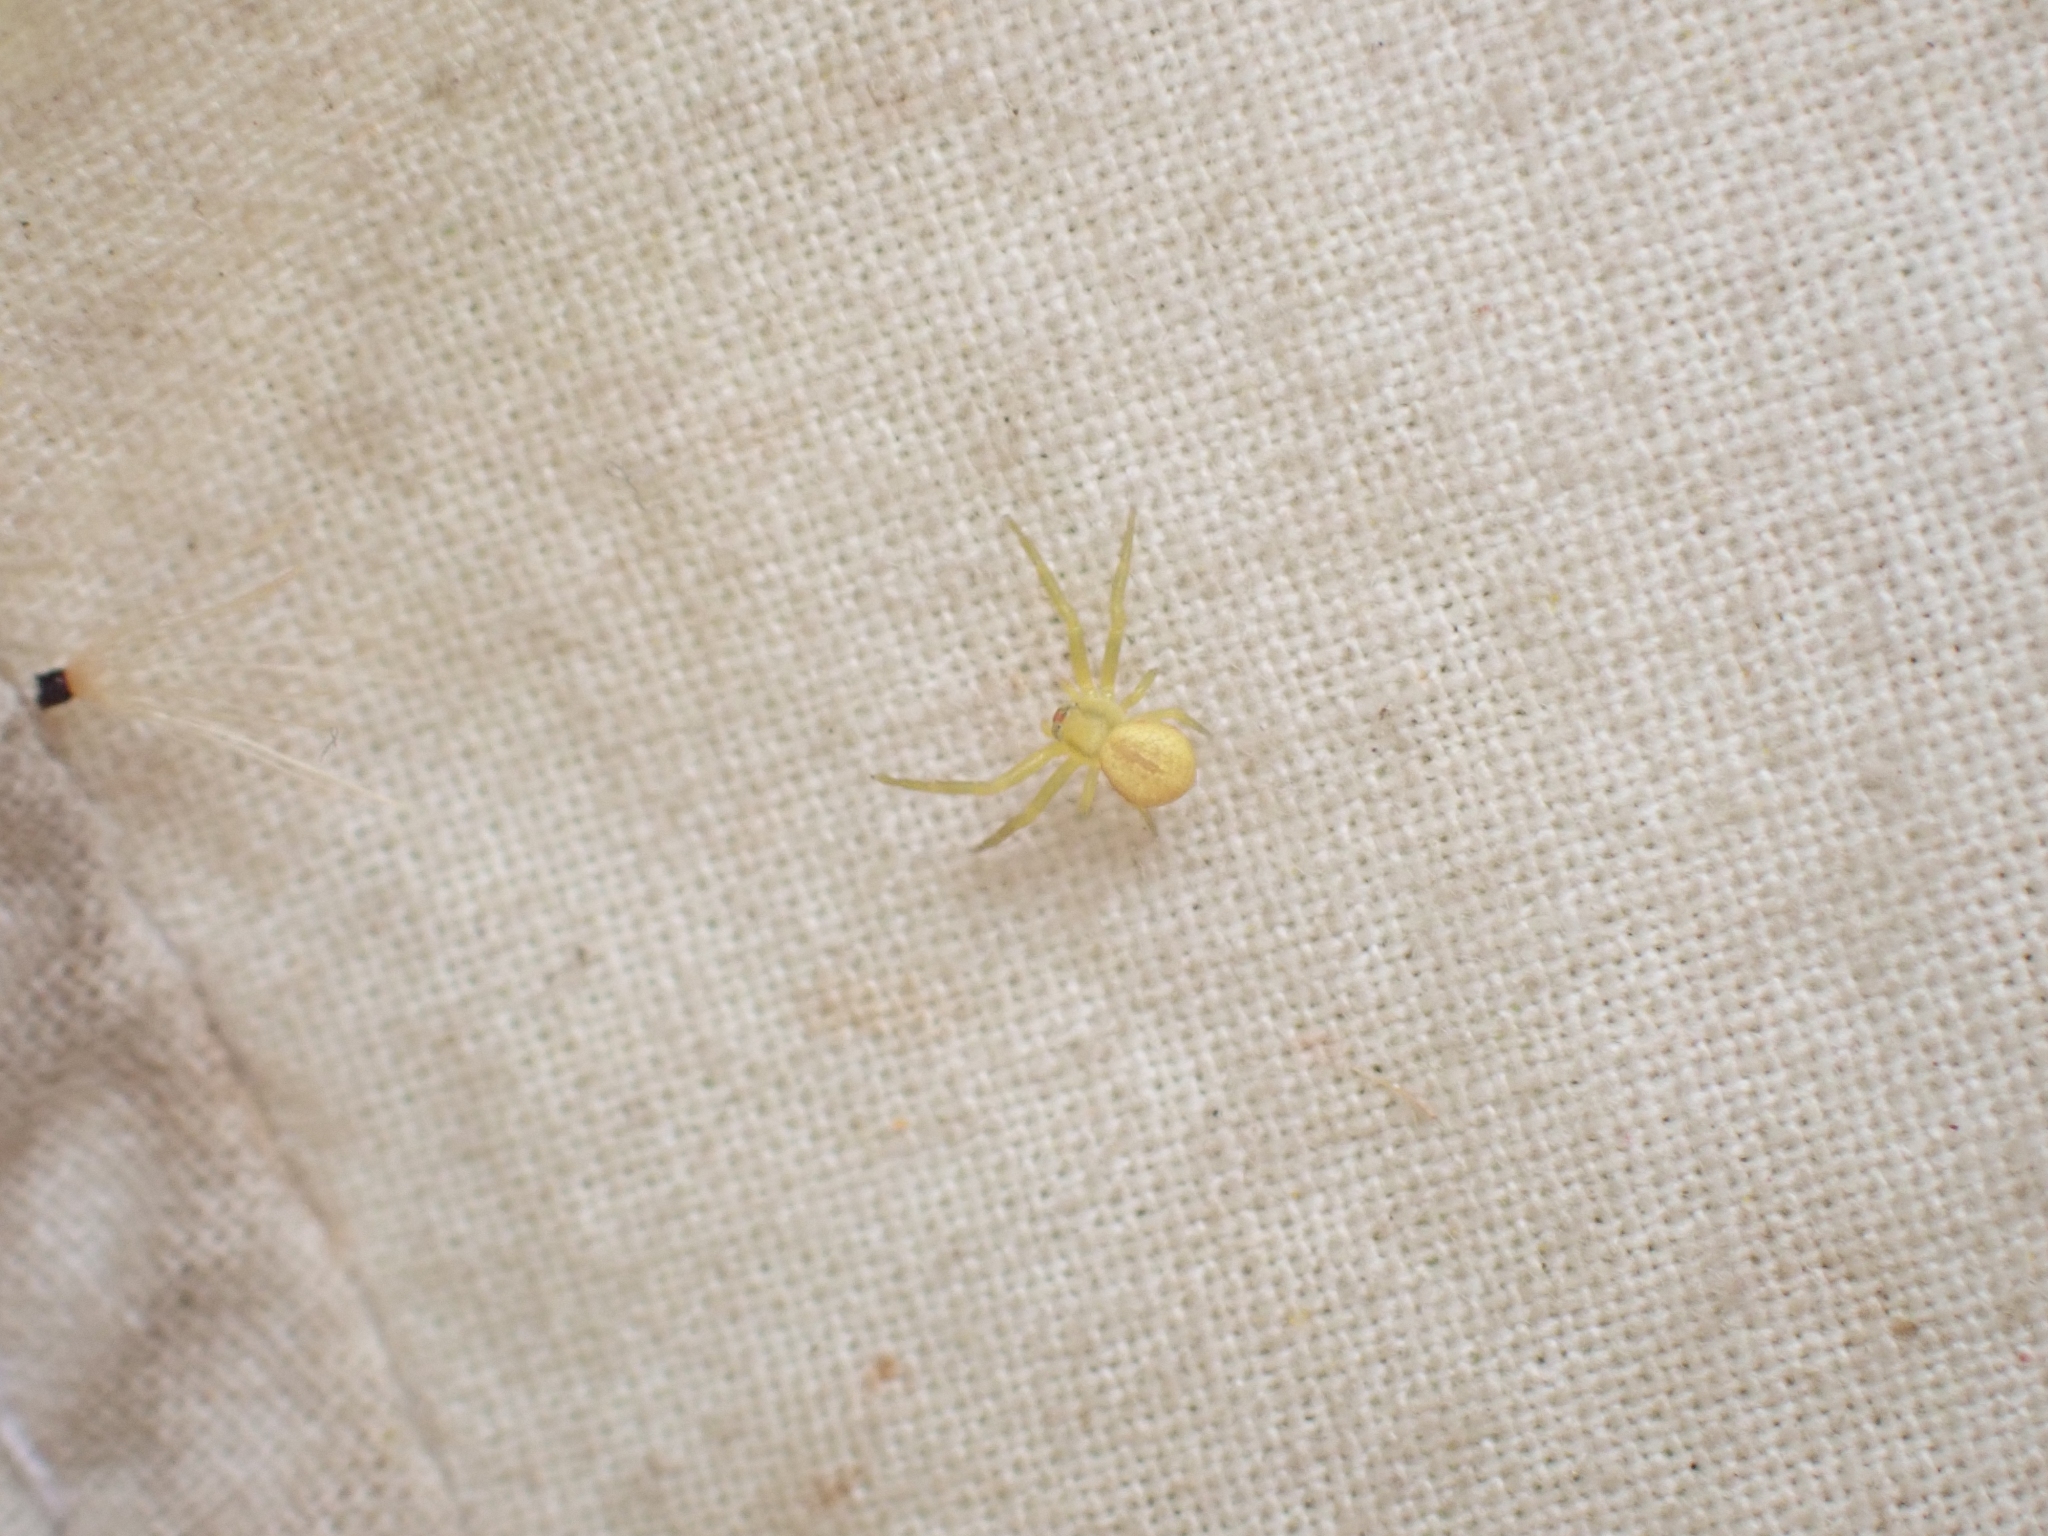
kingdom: Animalia
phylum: Arthropoda
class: Arachnida
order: Araneae
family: Thomisidae
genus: Misumena
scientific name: Misumena vatia
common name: Goldenrod crab spider
